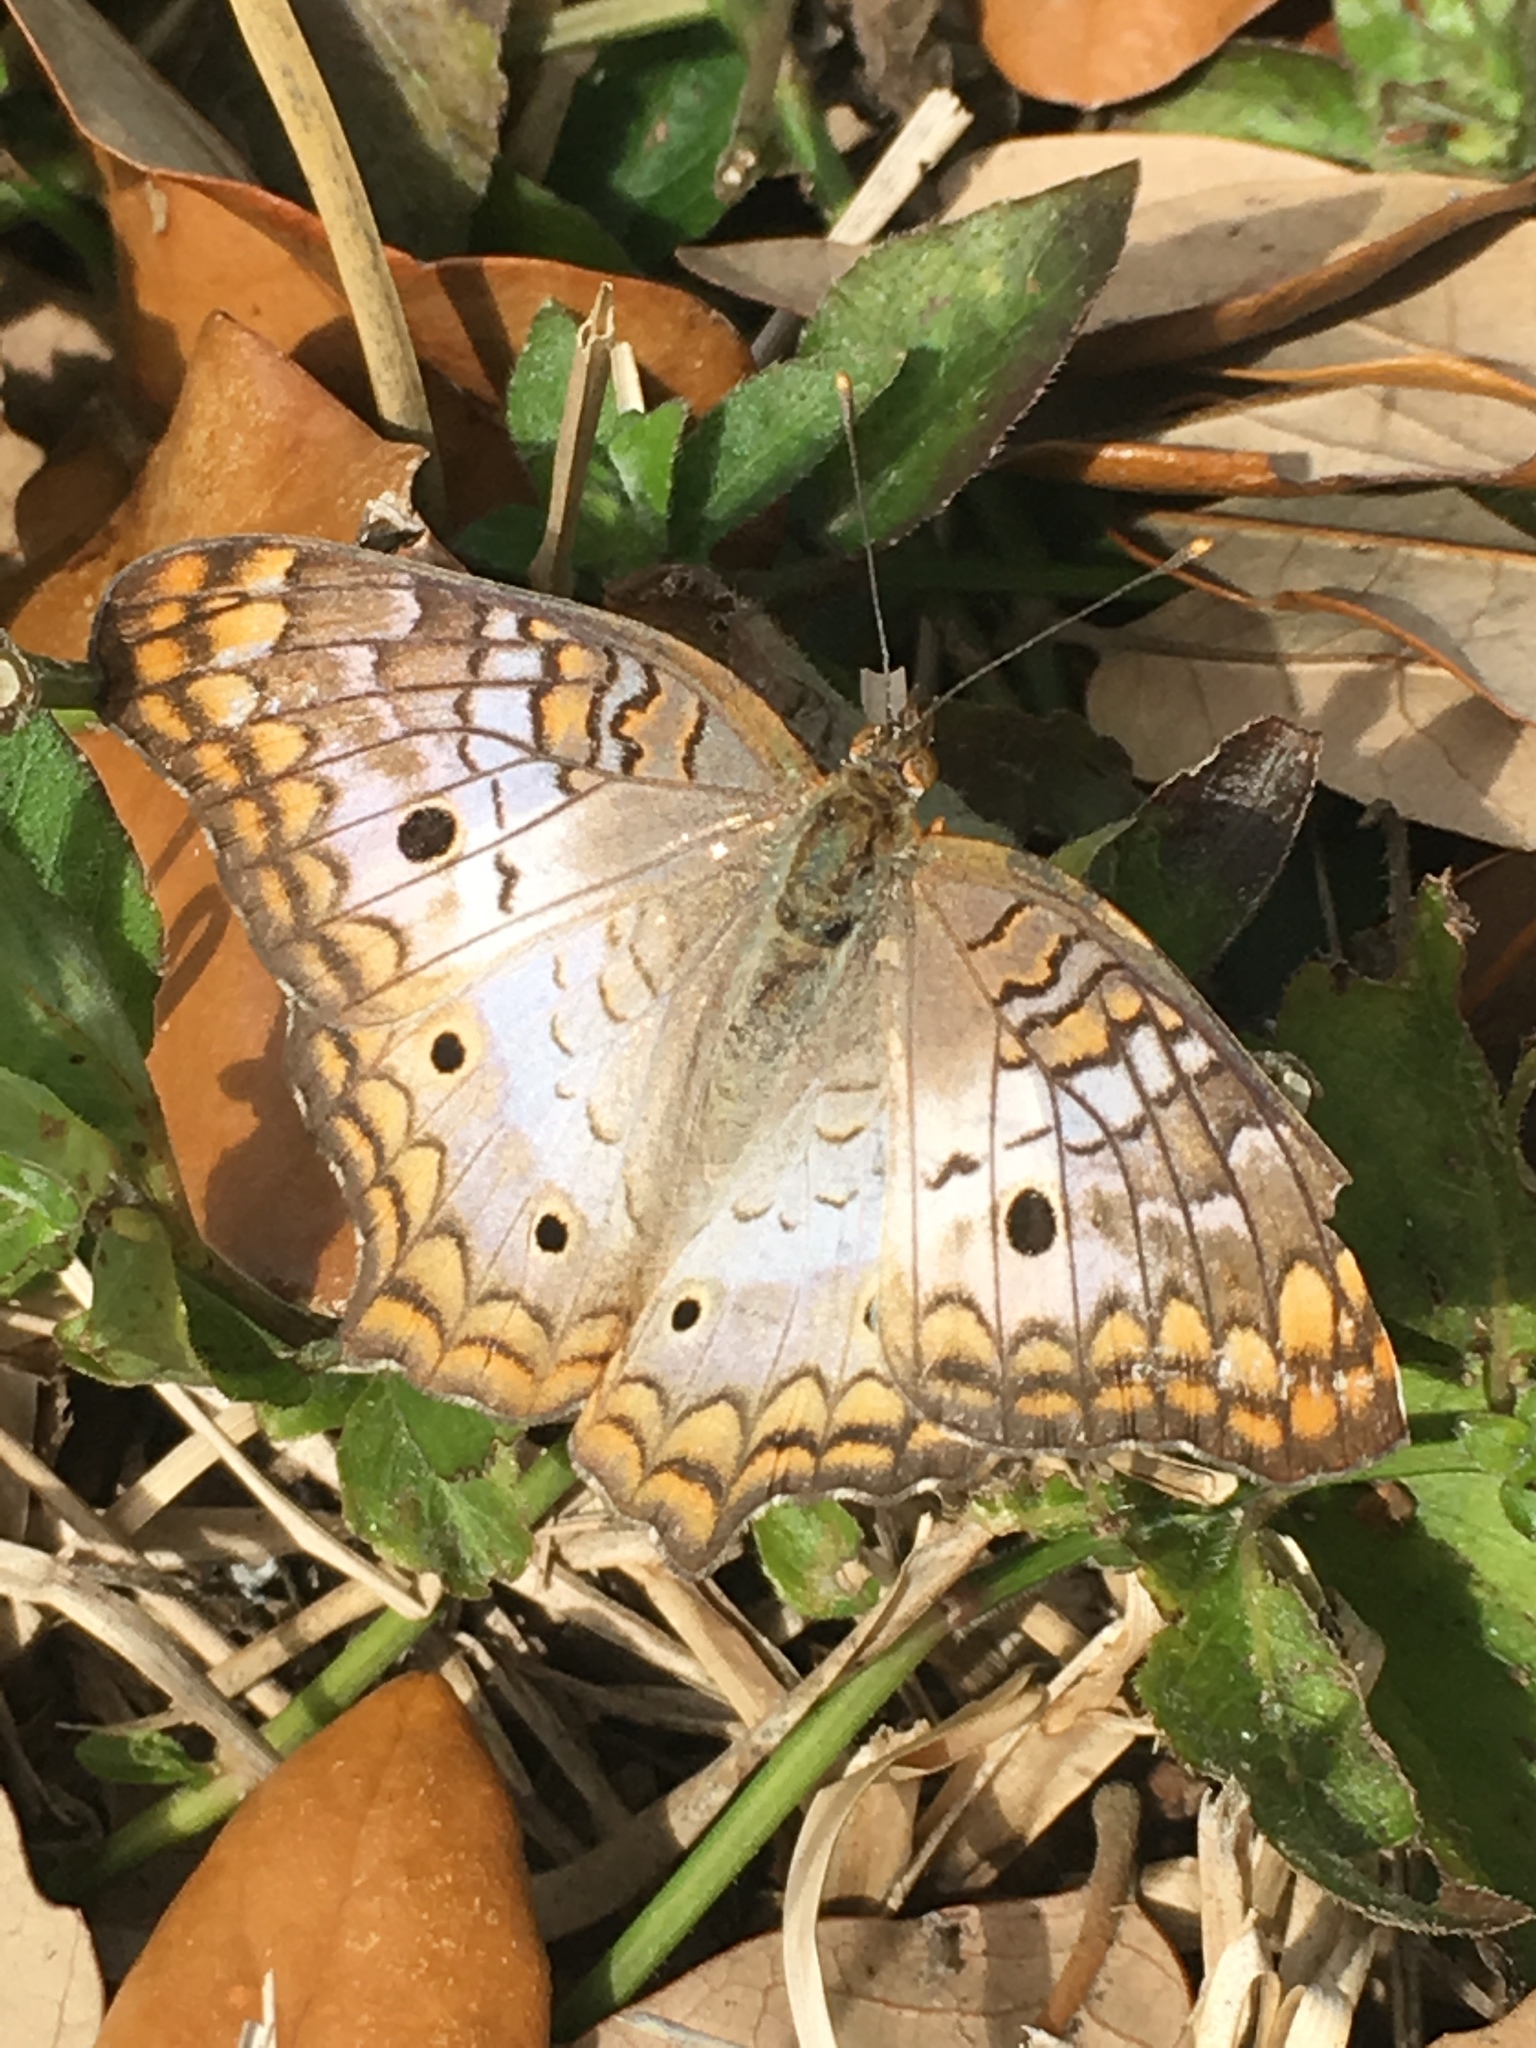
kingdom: Animalia
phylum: Arthropoda
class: Insecta
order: Lepidoptera
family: Nymphalidae
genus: Anartia
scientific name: Anartia jatrophae
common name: White peacock
